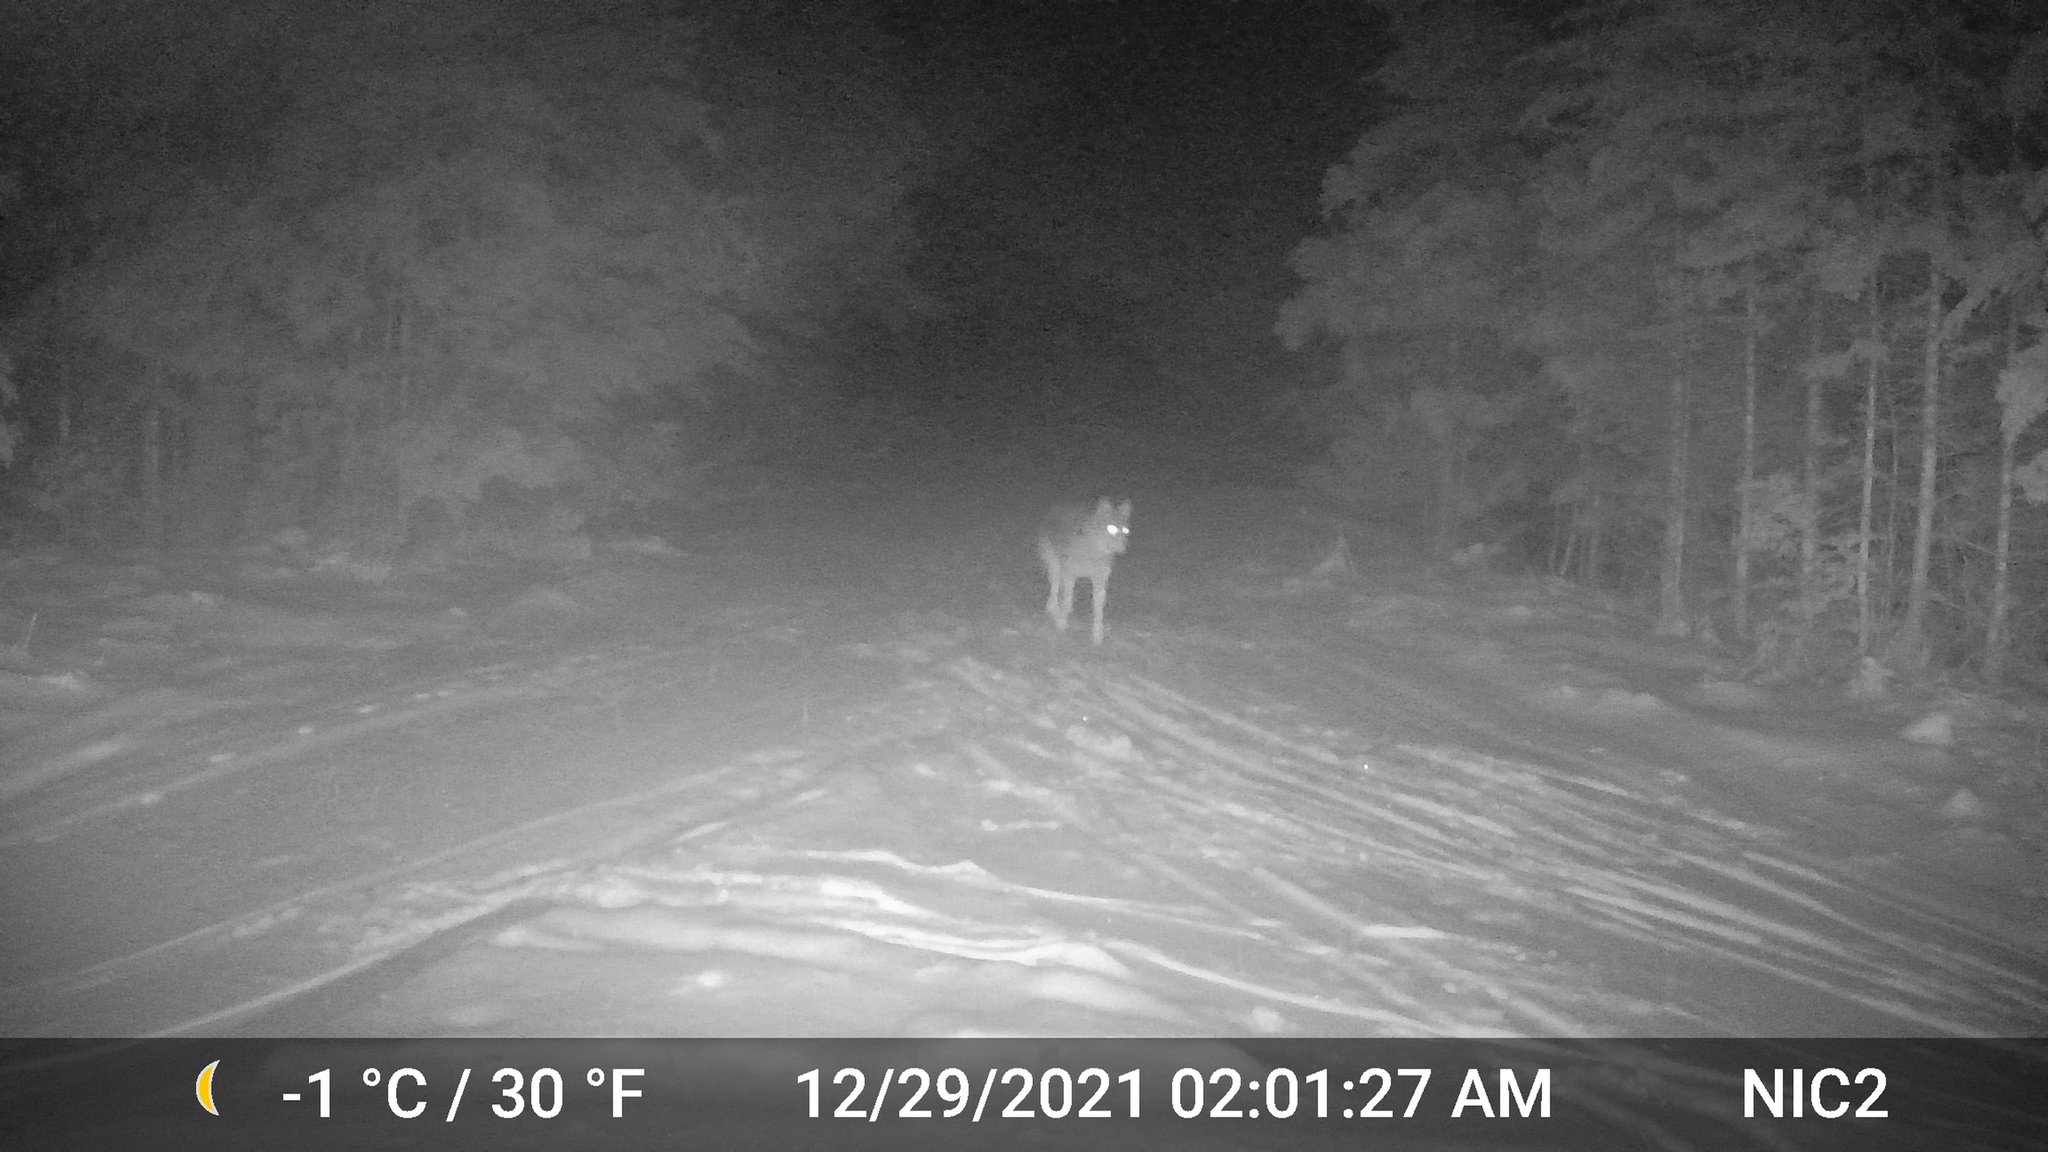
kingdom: Animalia
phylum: Chordata
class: Mammalia
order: Carnivora
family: Canidae
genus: Canis
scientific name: Canis latrans
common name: Coyote
